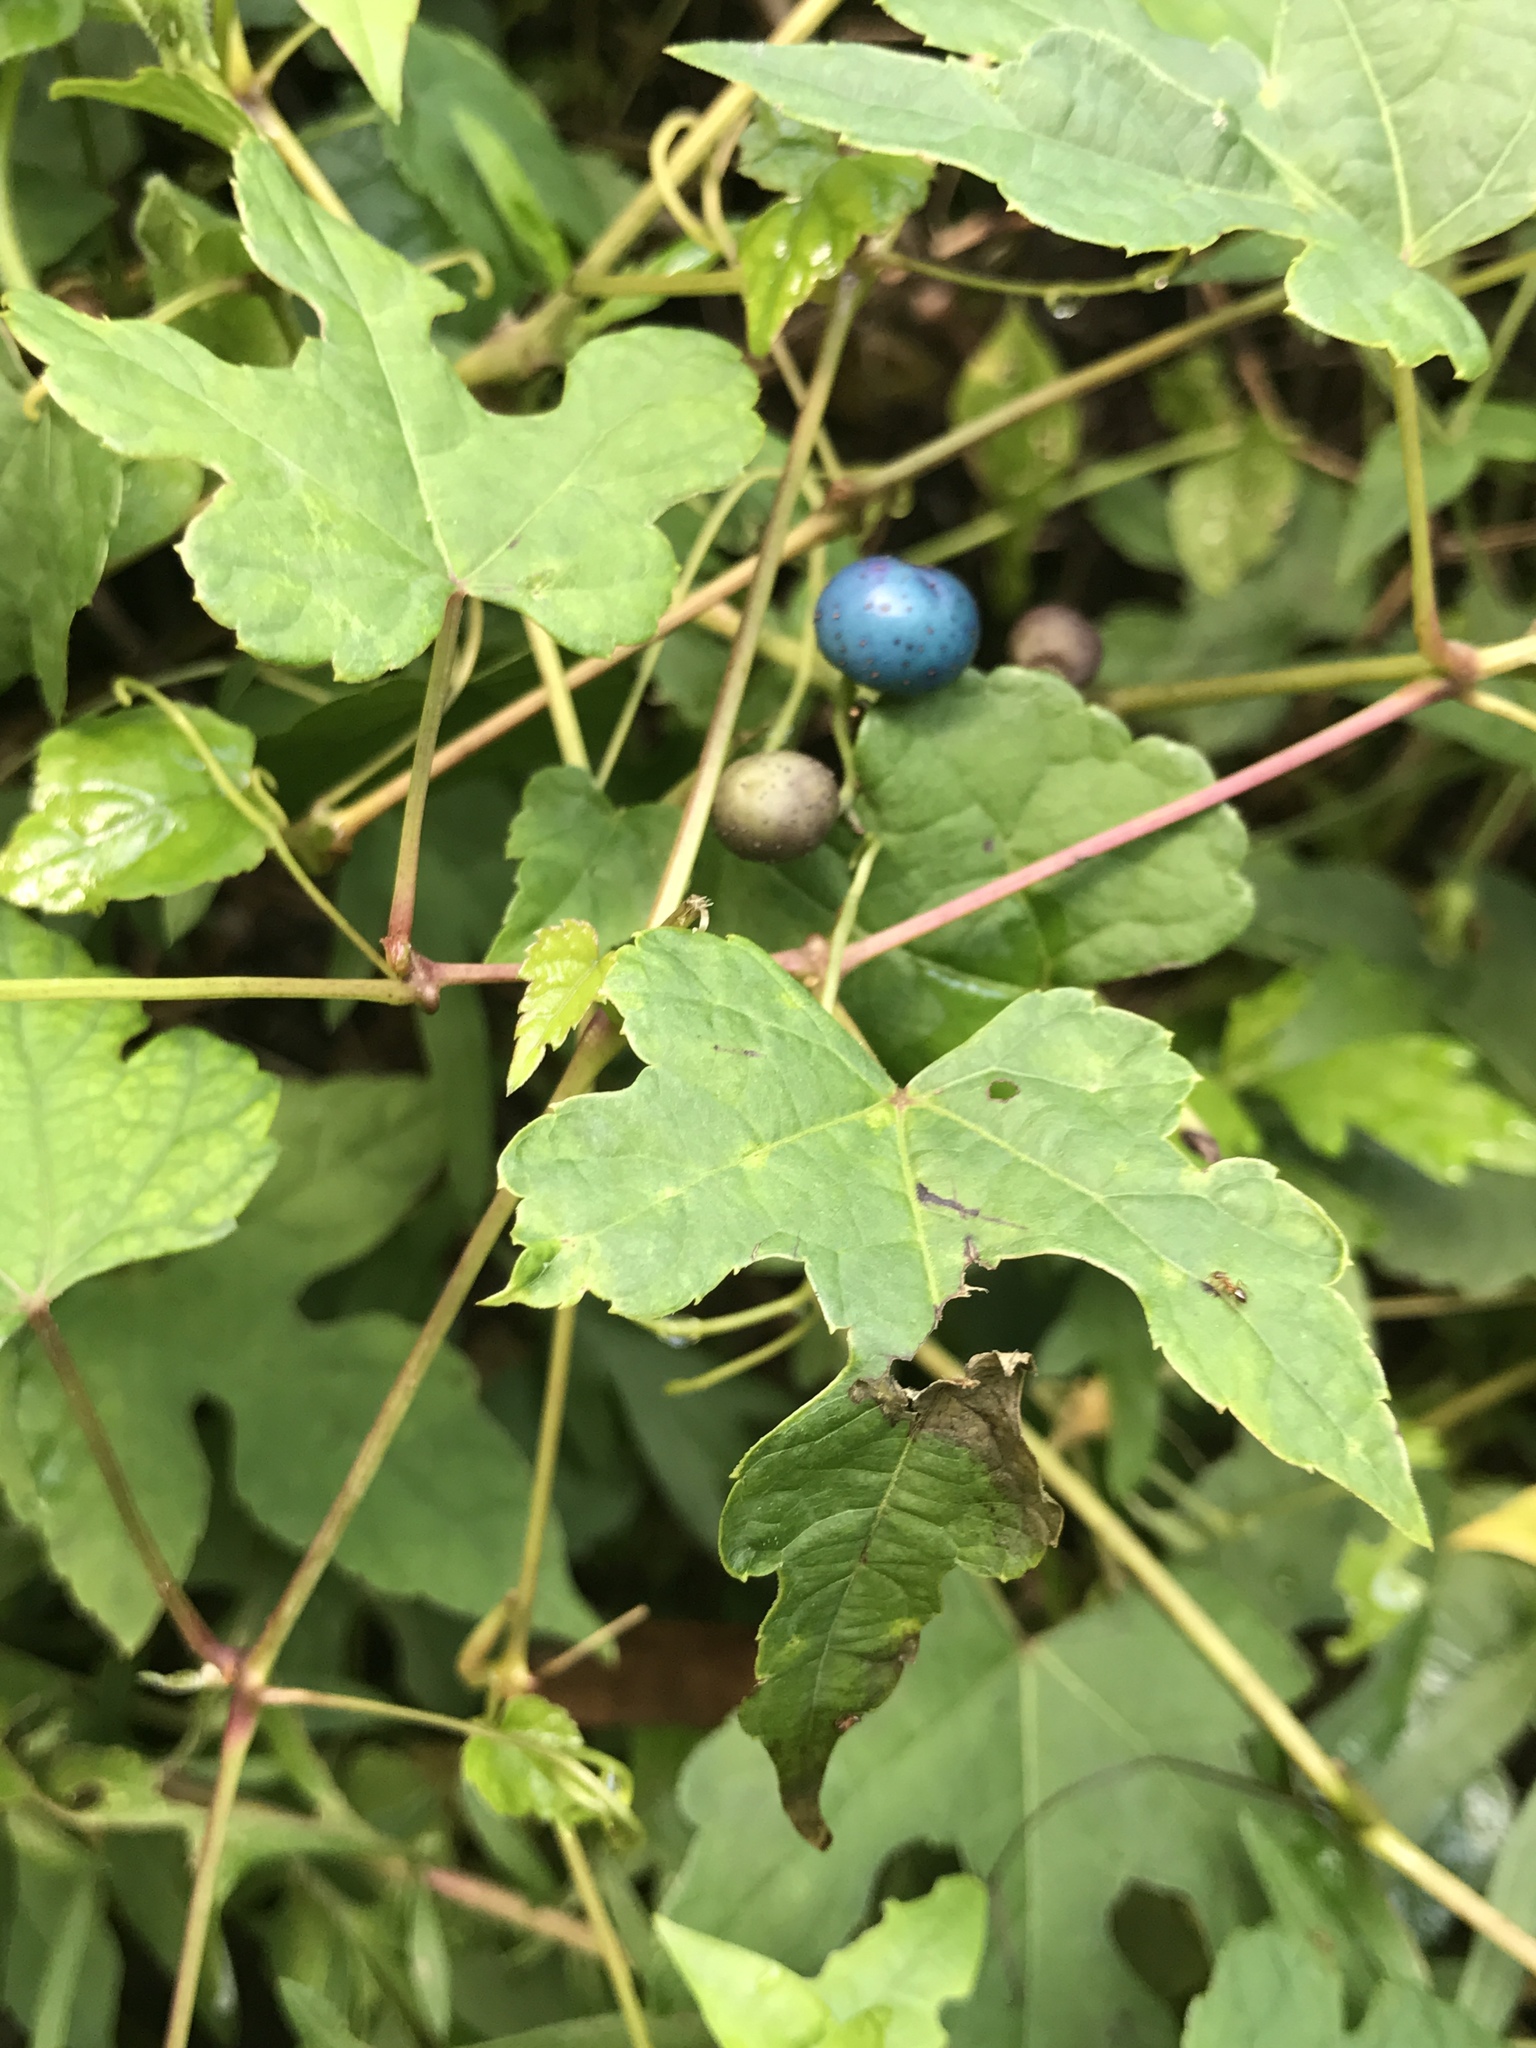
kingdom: Plantae
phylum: Tracheophyta
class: Magnoliopsida
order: Vitales
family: Vitaceae
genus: Ampelopsis
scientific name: Ampelopsis glandulosa
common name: Amur peppervine
